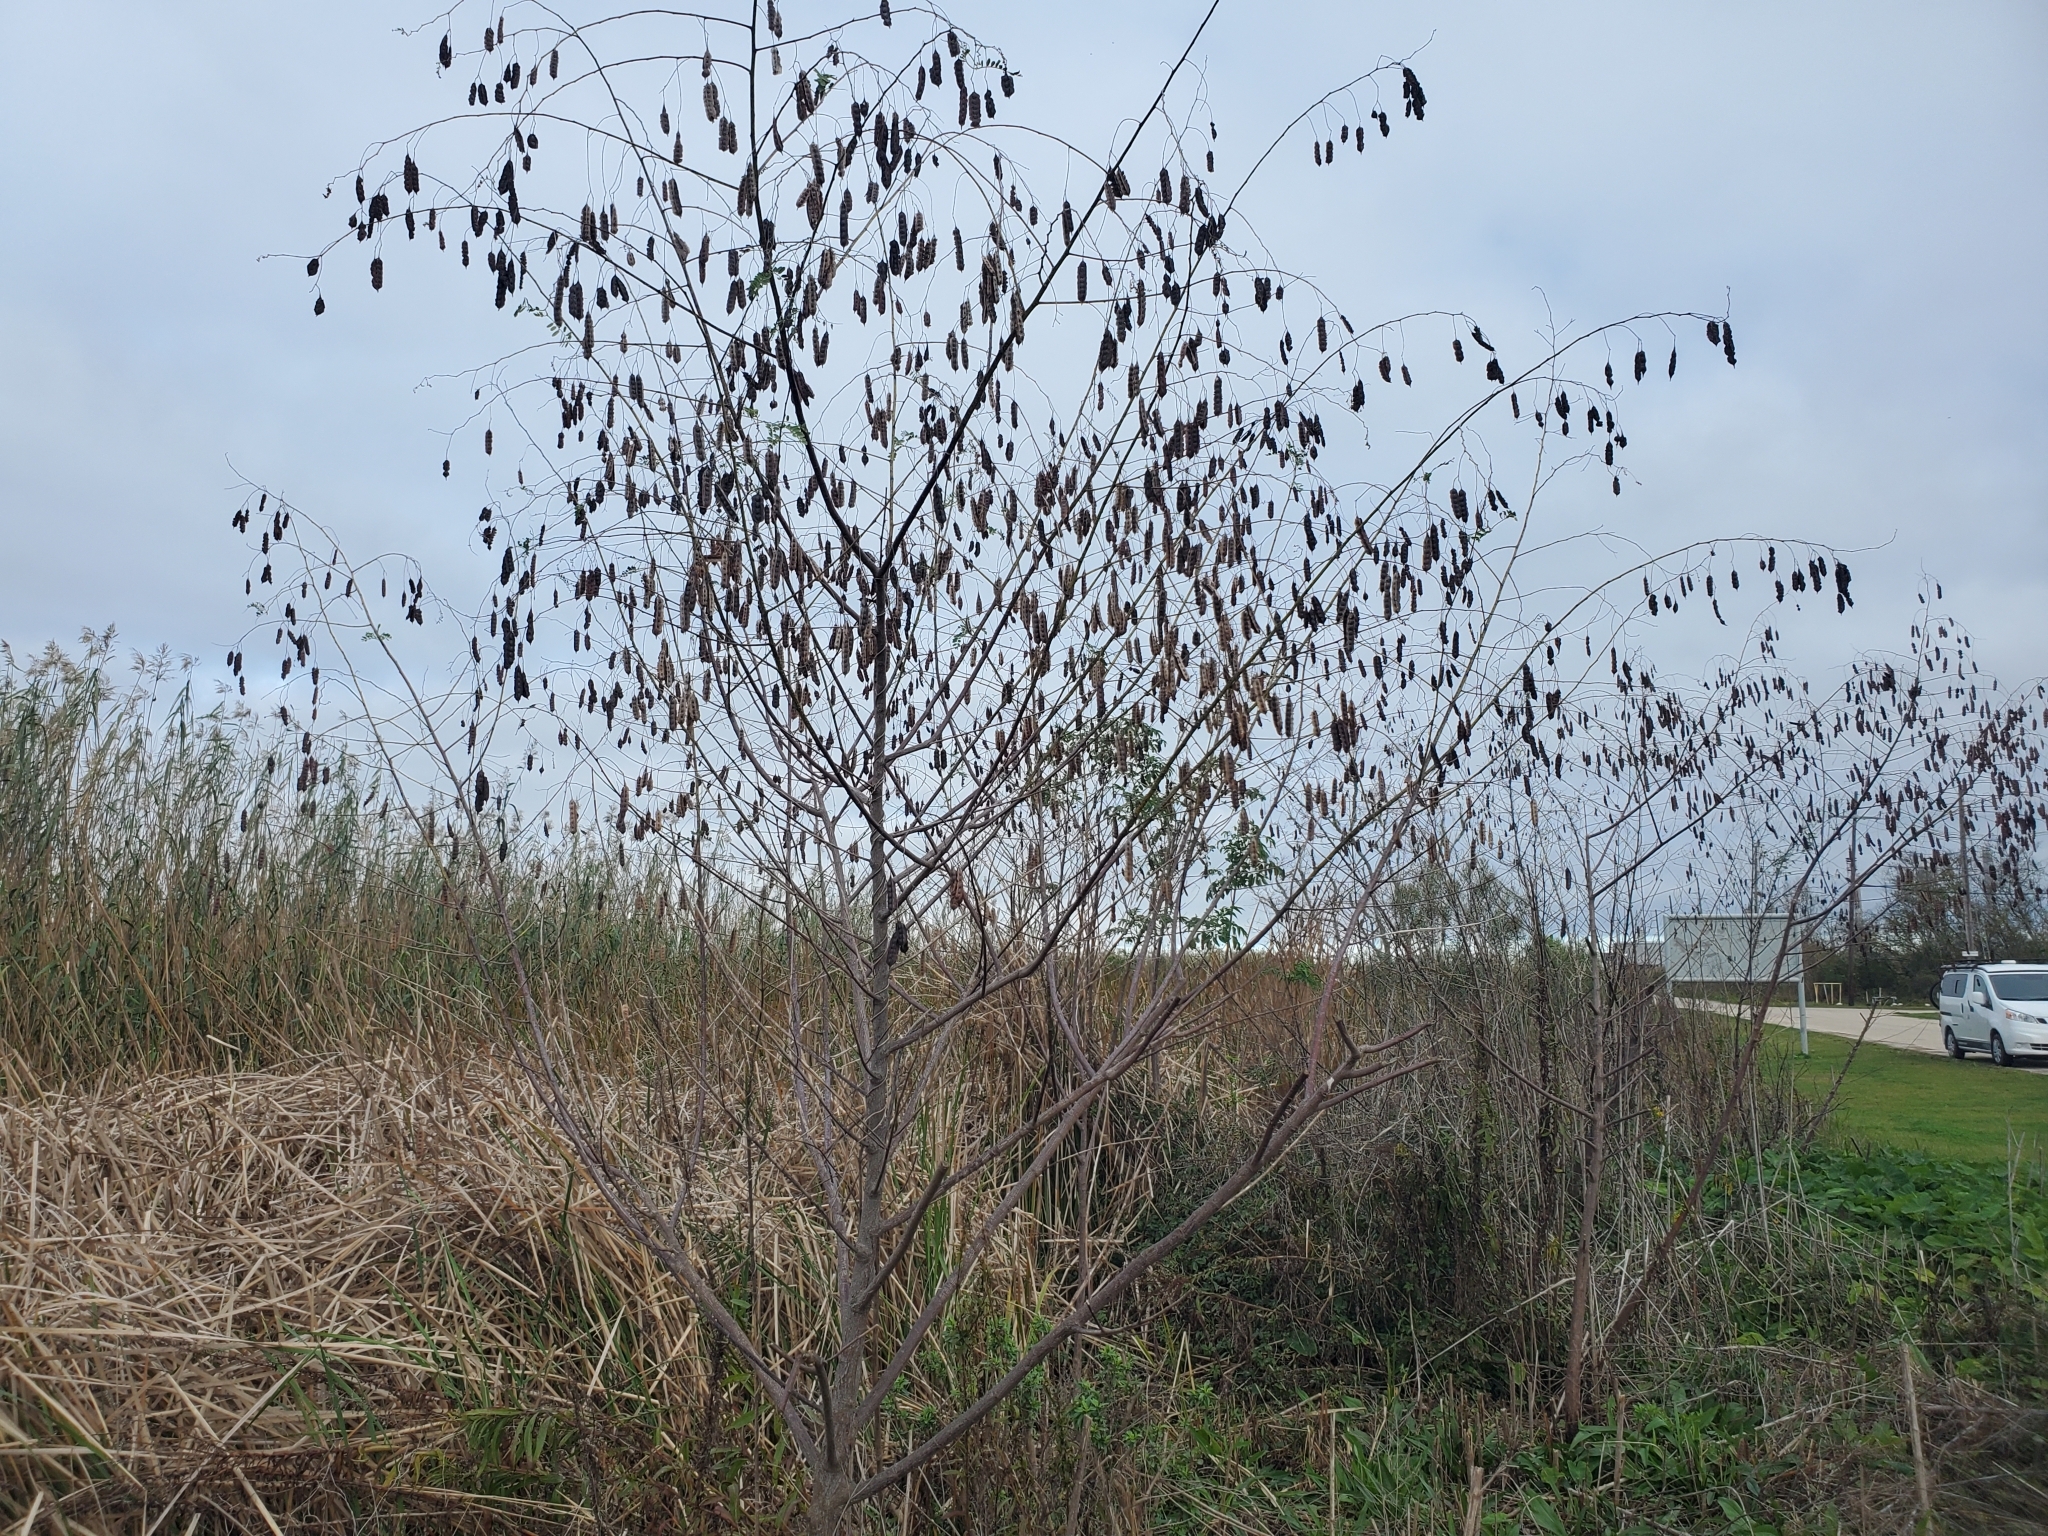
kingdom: Plantae
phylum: Tracheophyta
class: Magnoliopsida
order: Fabales
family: Fabaceae
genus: Sesbania
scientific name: Sesbania drummondii
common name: Poison-bean
